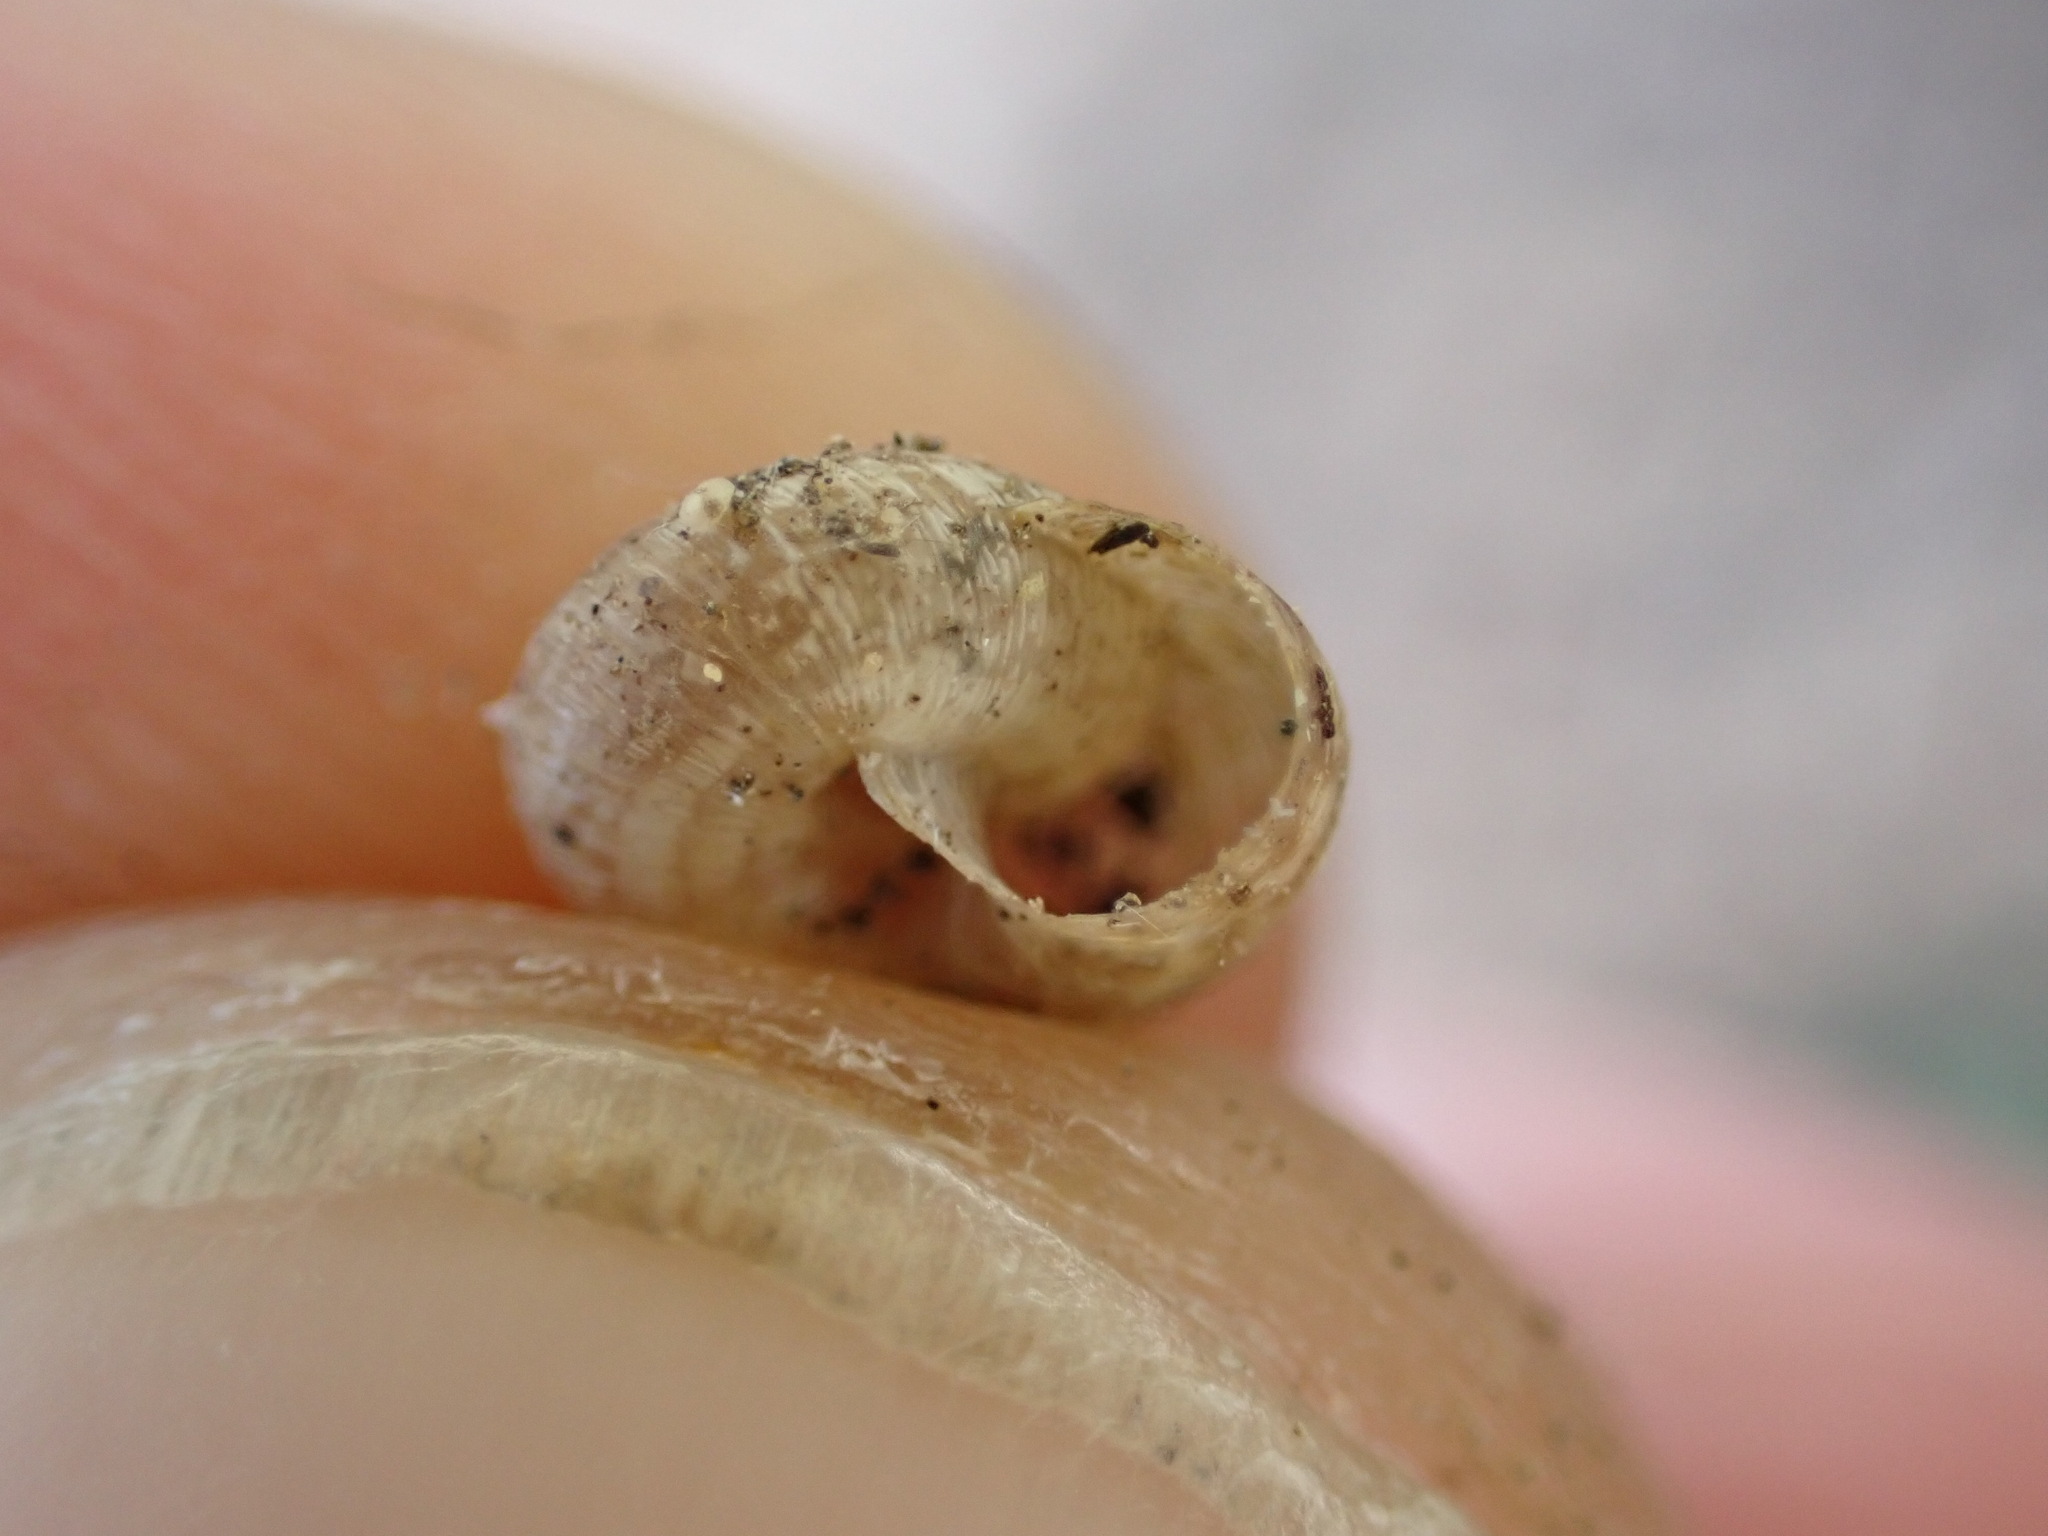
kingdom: Animalia
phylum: Mollusca
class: Gastropoda
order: Stylommatophora
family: Geomitridae
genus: Xerotricha
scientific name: Xerotricha conspurcata
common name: Snail
